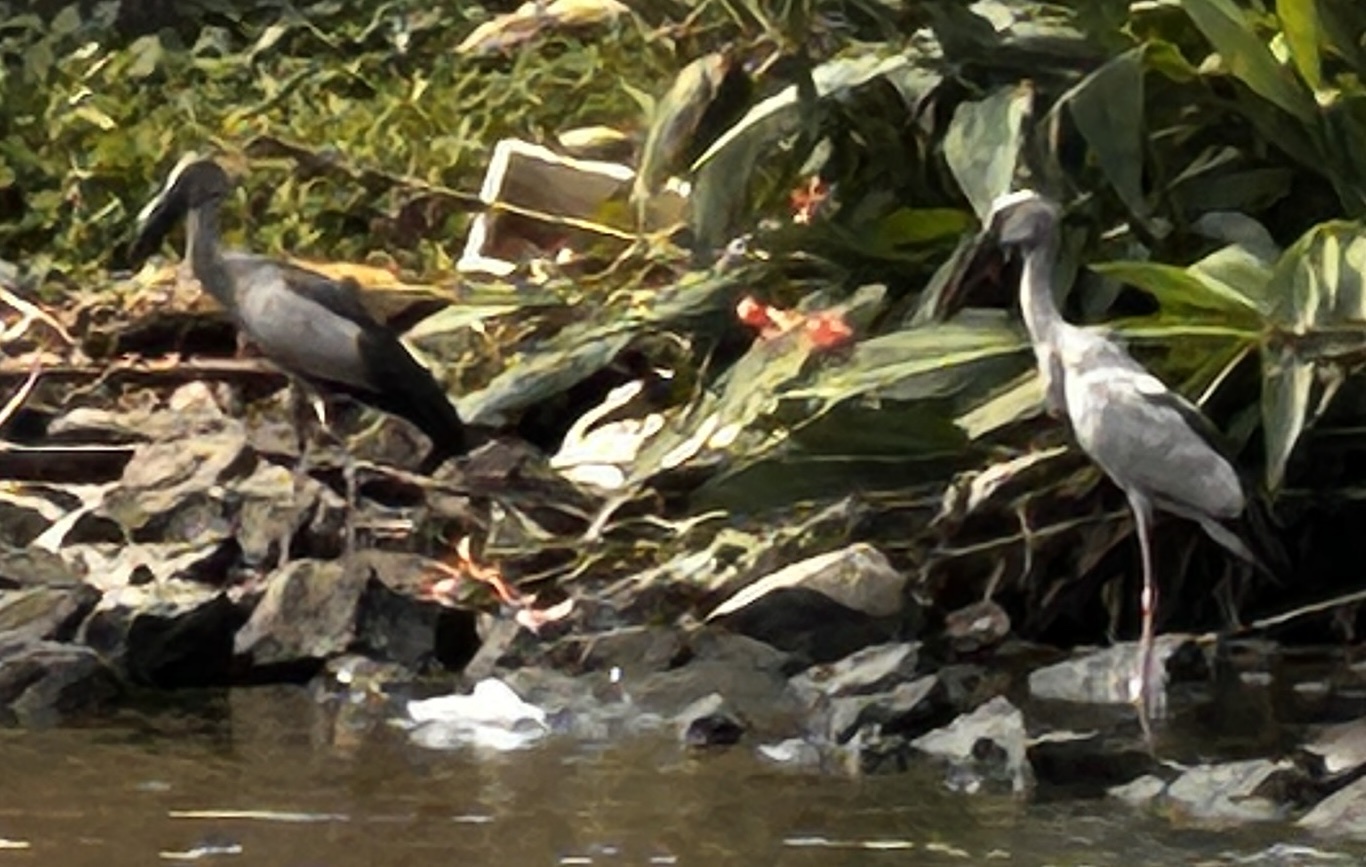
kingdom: Animalia
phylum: Chordata
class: Aves
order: Ciconiiformes
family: Ciconiidae
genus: Anastomus
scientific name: Anastomus oscitans
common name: Asian openbill
